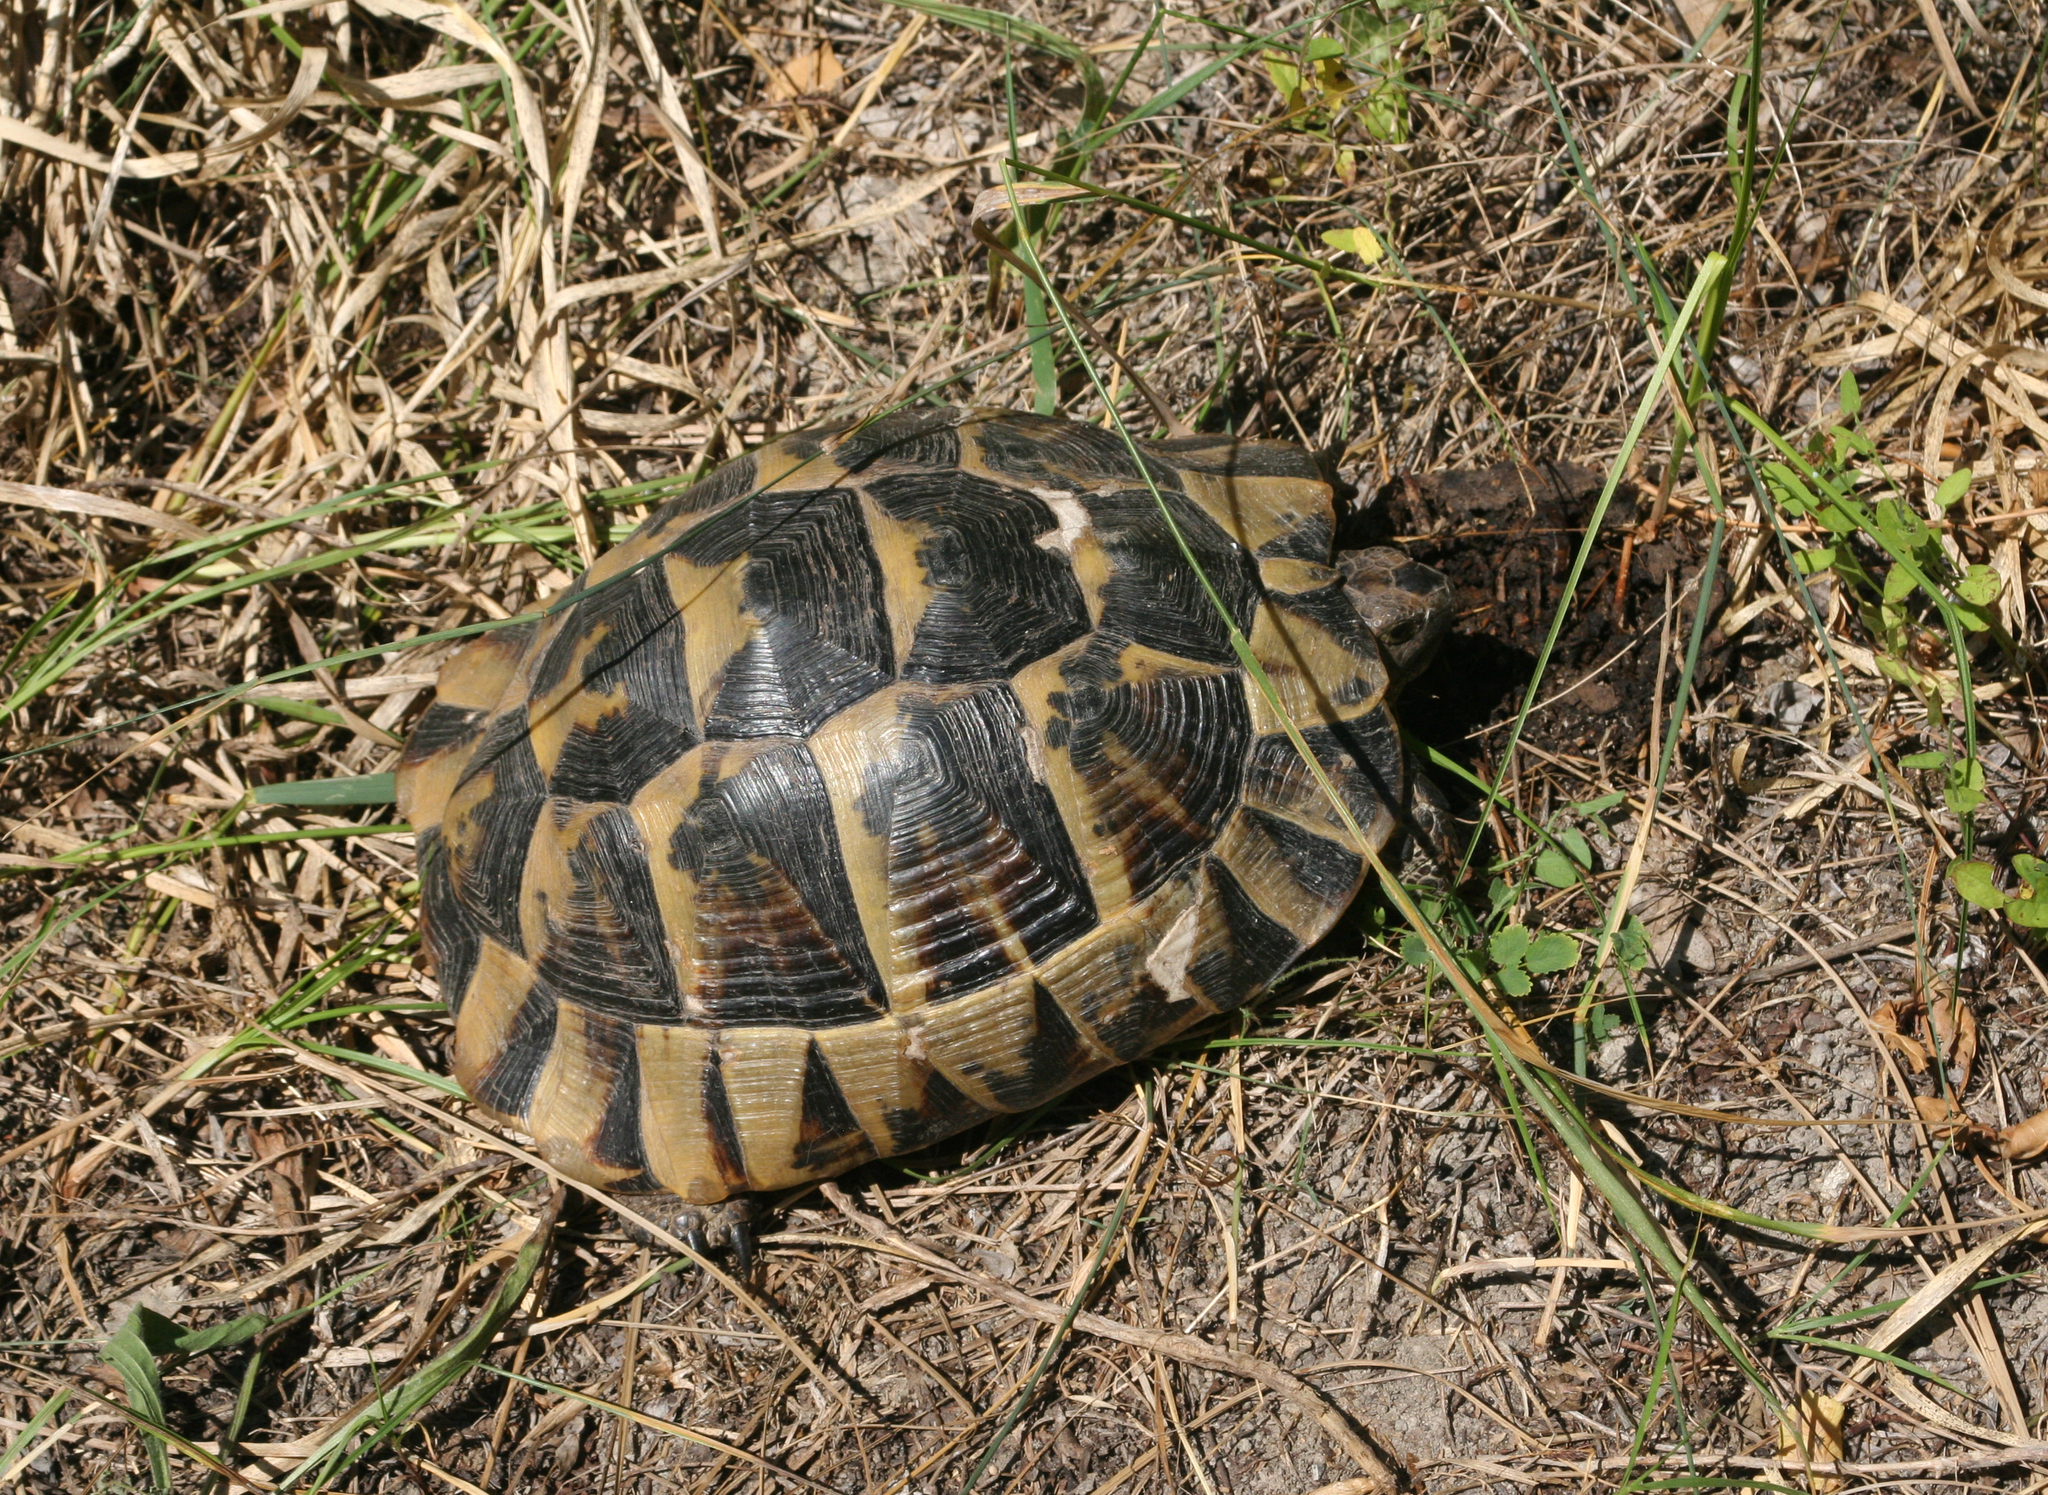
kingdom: Animalia
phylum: Chordata
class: Testudines
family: Testudinidae
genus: Testudo
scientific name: Testudo graeca
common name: Common tortoise
